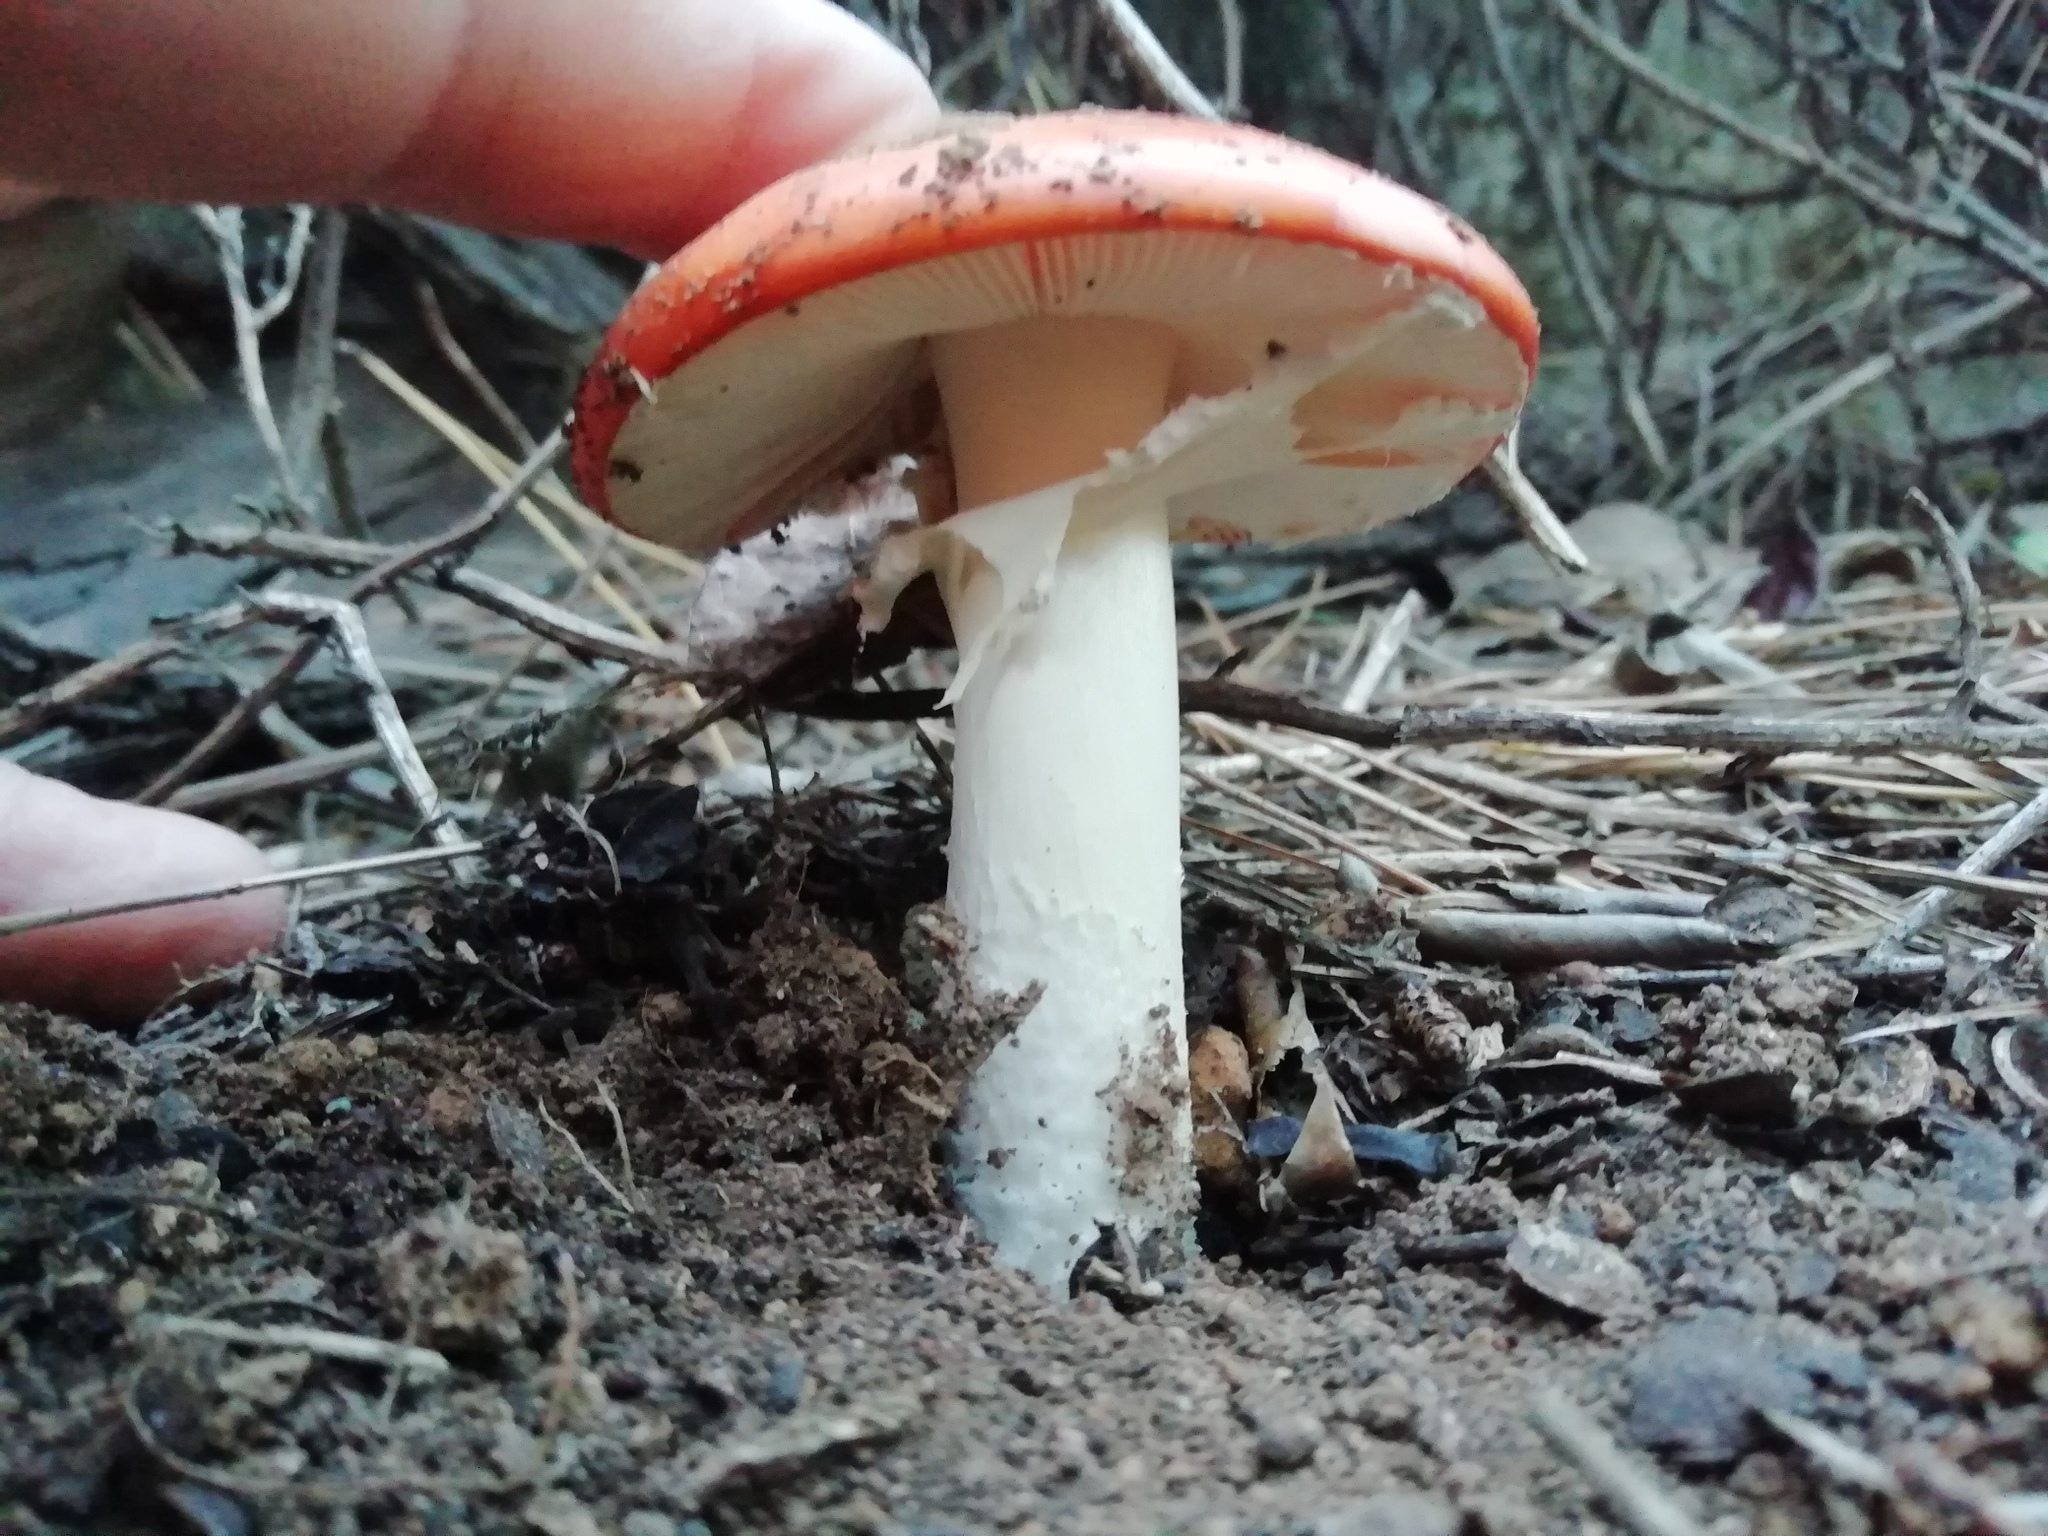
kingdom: Fungi
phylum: Basidiomycota
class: Agaricomycetes
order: Agaricales
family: Amanitaceae
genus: Amanita
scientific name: Amanita muscaria
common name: Fly agaric
